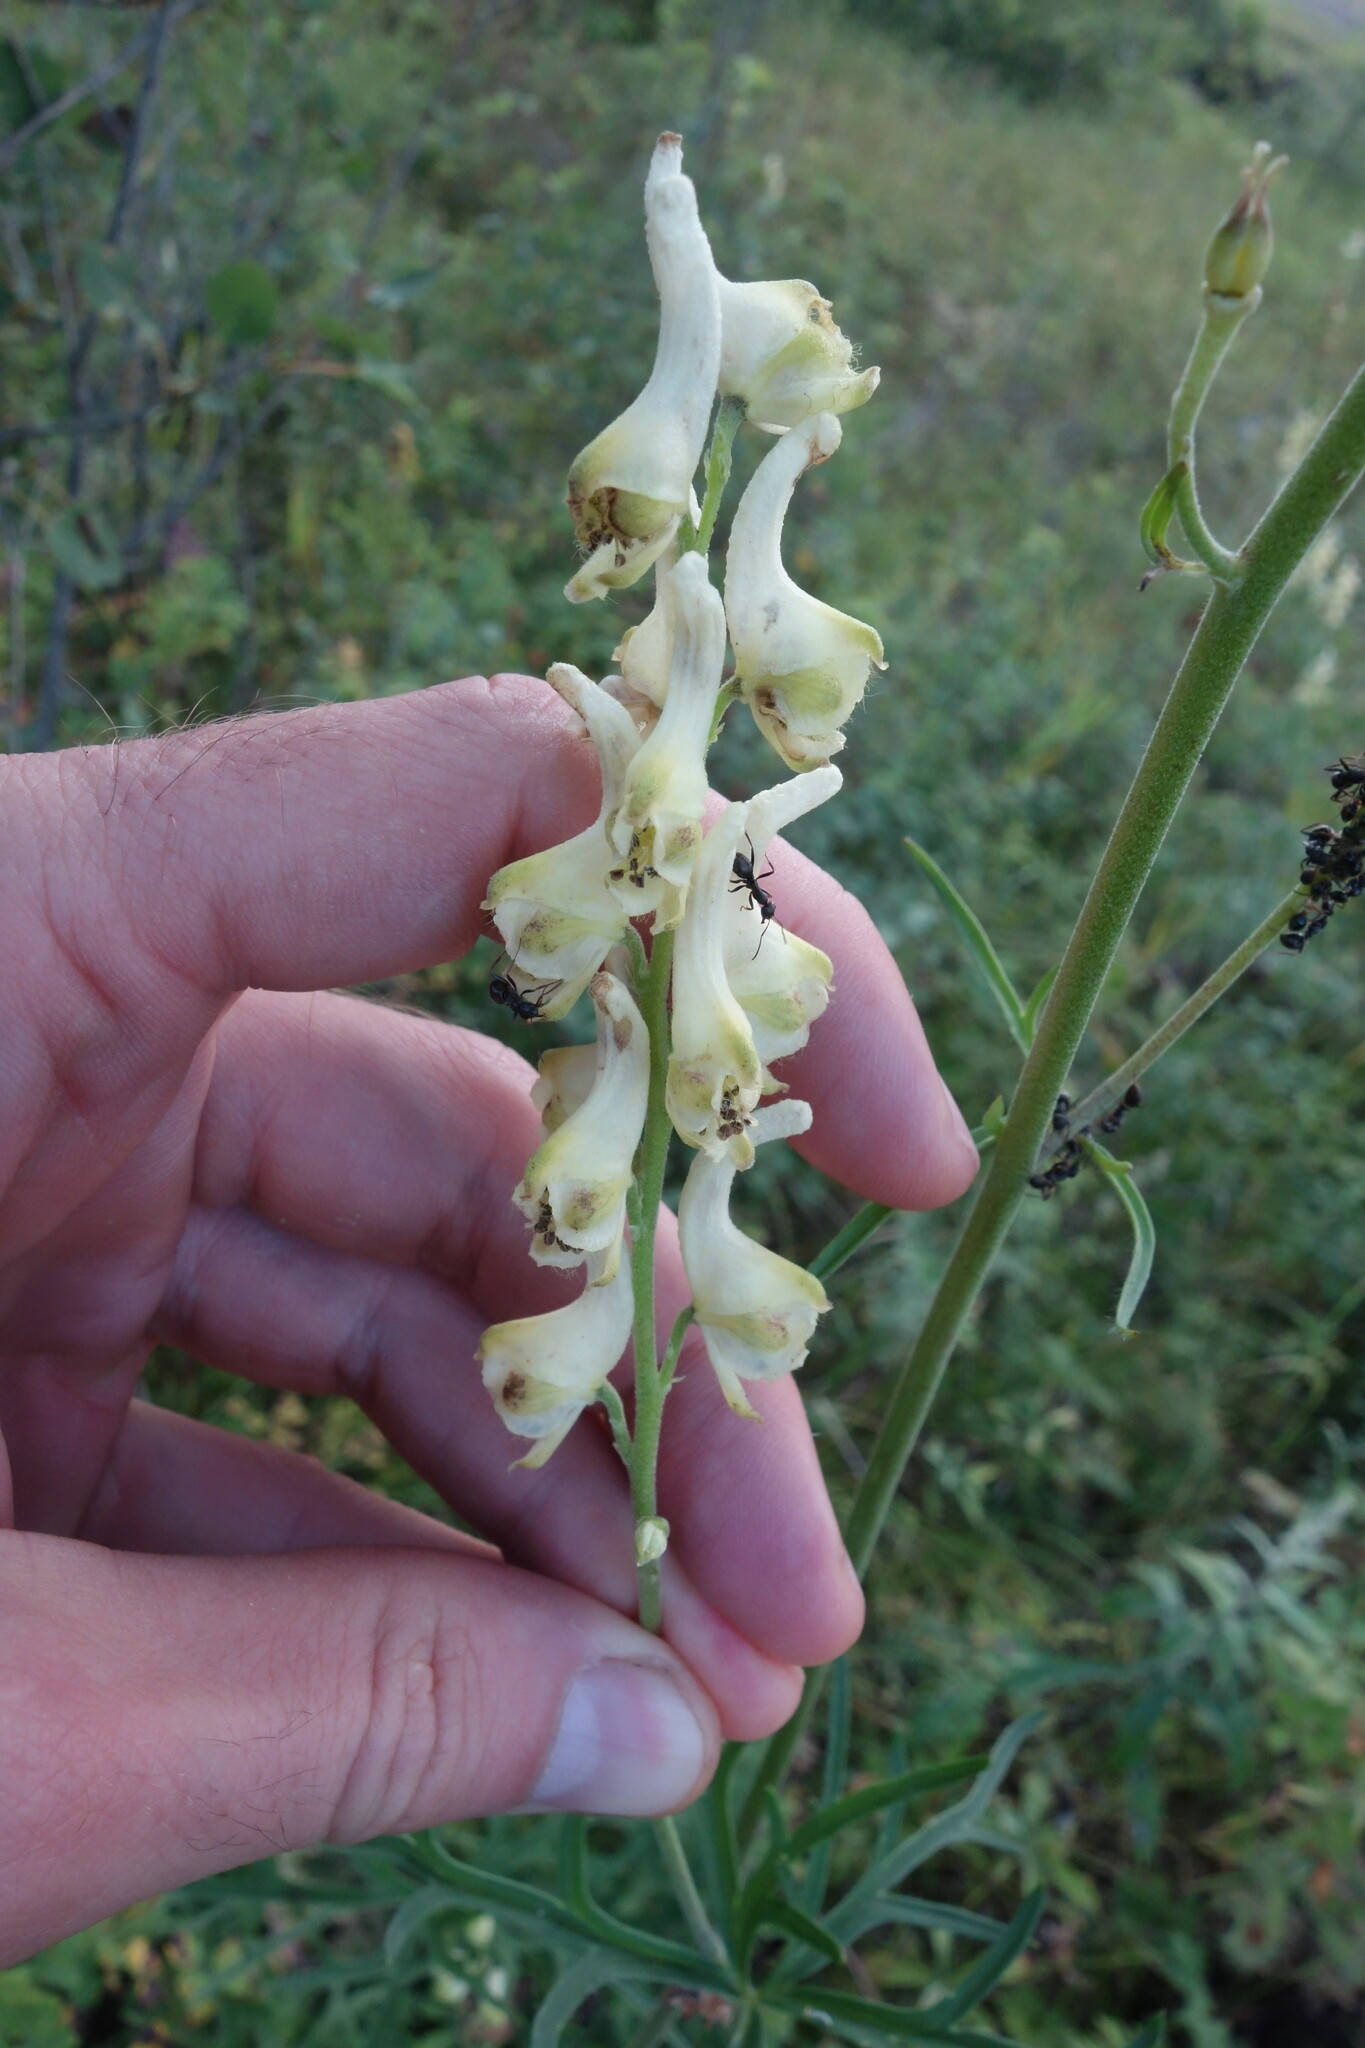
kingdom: Plantae
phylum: Tracheophyta
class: Magnoliopsida
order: Ranunculales
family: Ranunculaceae
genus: Aconitum
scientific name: Aconitum barbatum
